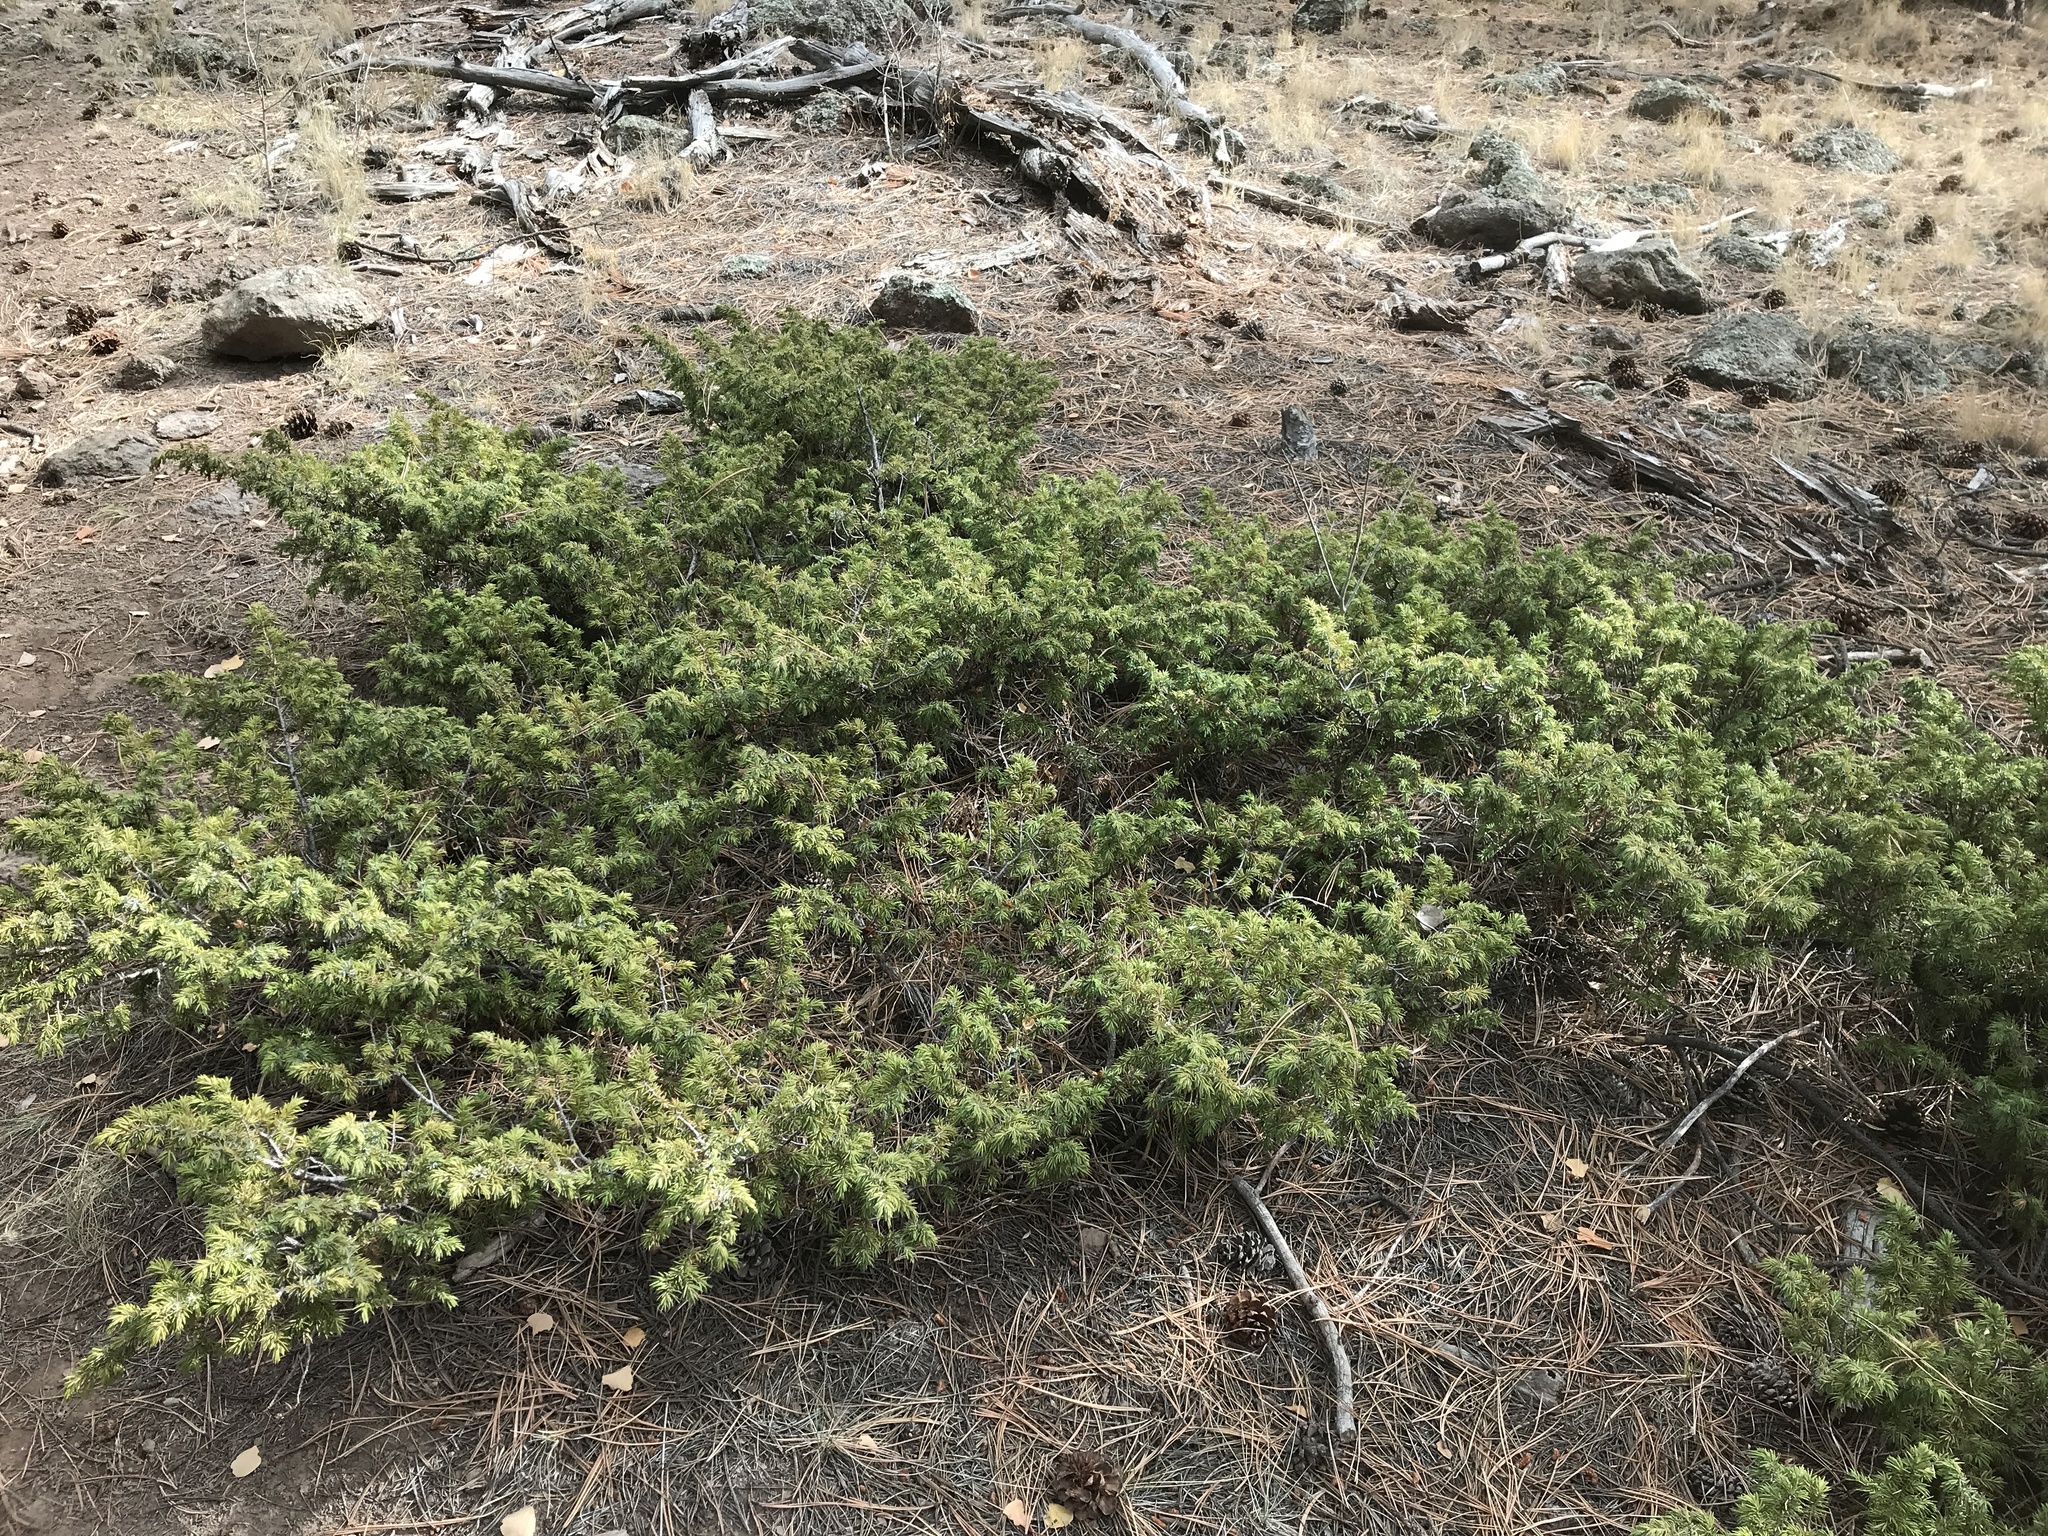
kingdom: Plantae
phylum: Tracheophyta
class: Pinopsida
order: Pinales
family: Cupressaceae
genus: Juniperus
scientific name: Juniperus communis
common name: Common juniper
